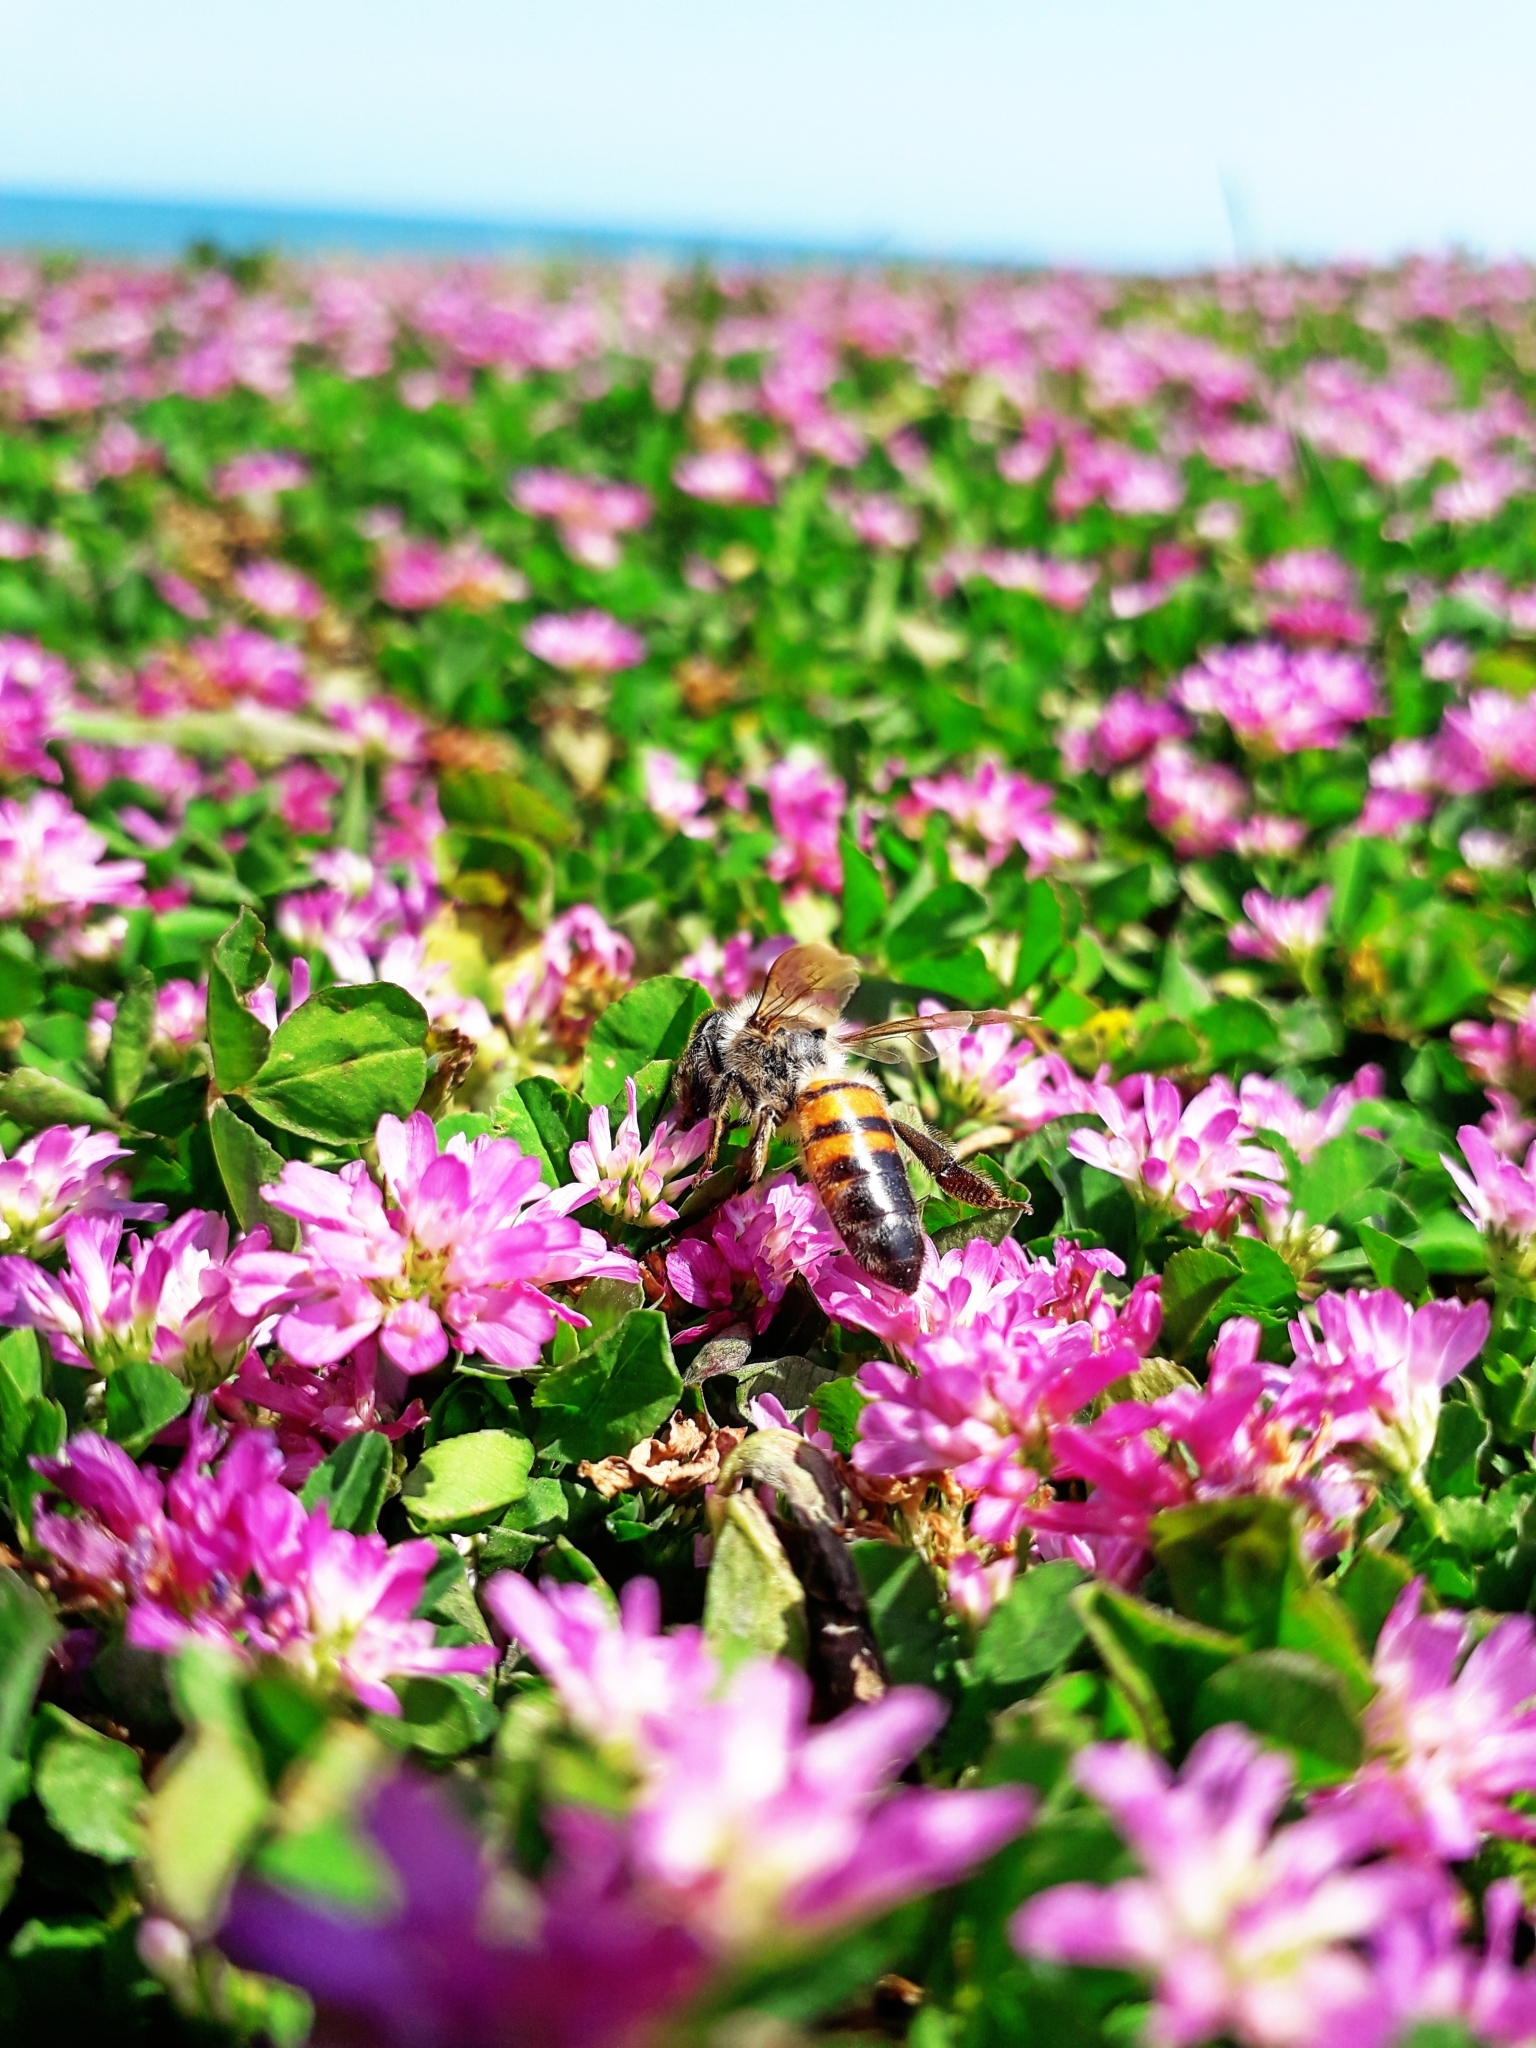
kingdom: Animalia
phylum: Arthropoda
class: Insecta
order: Hymenoptera
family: Apidae
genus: Apis
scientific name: Apis mellifera
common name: Honey bee
